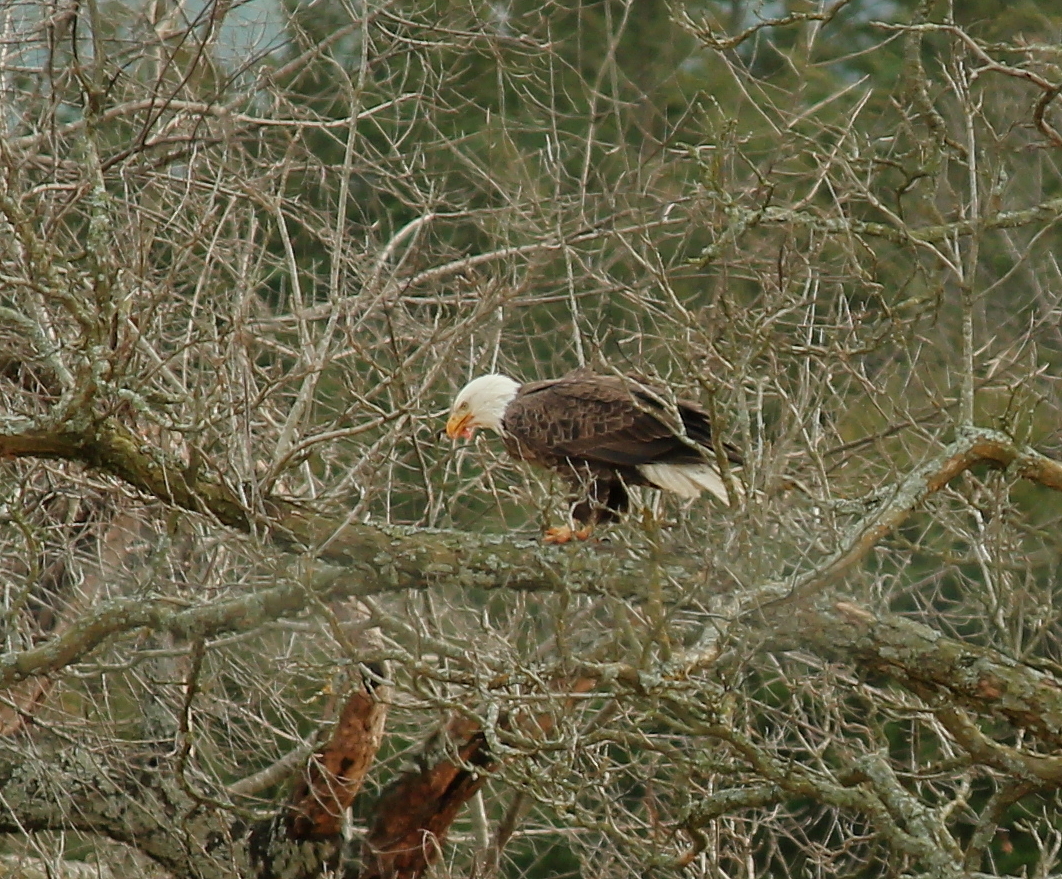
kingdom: Animalia
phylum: Chordata
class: Aves
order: Accipitriformes
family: Accipitridae
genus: Haliaeetus
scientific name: Haliaeetus leucocephalus
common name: Bald eagle
